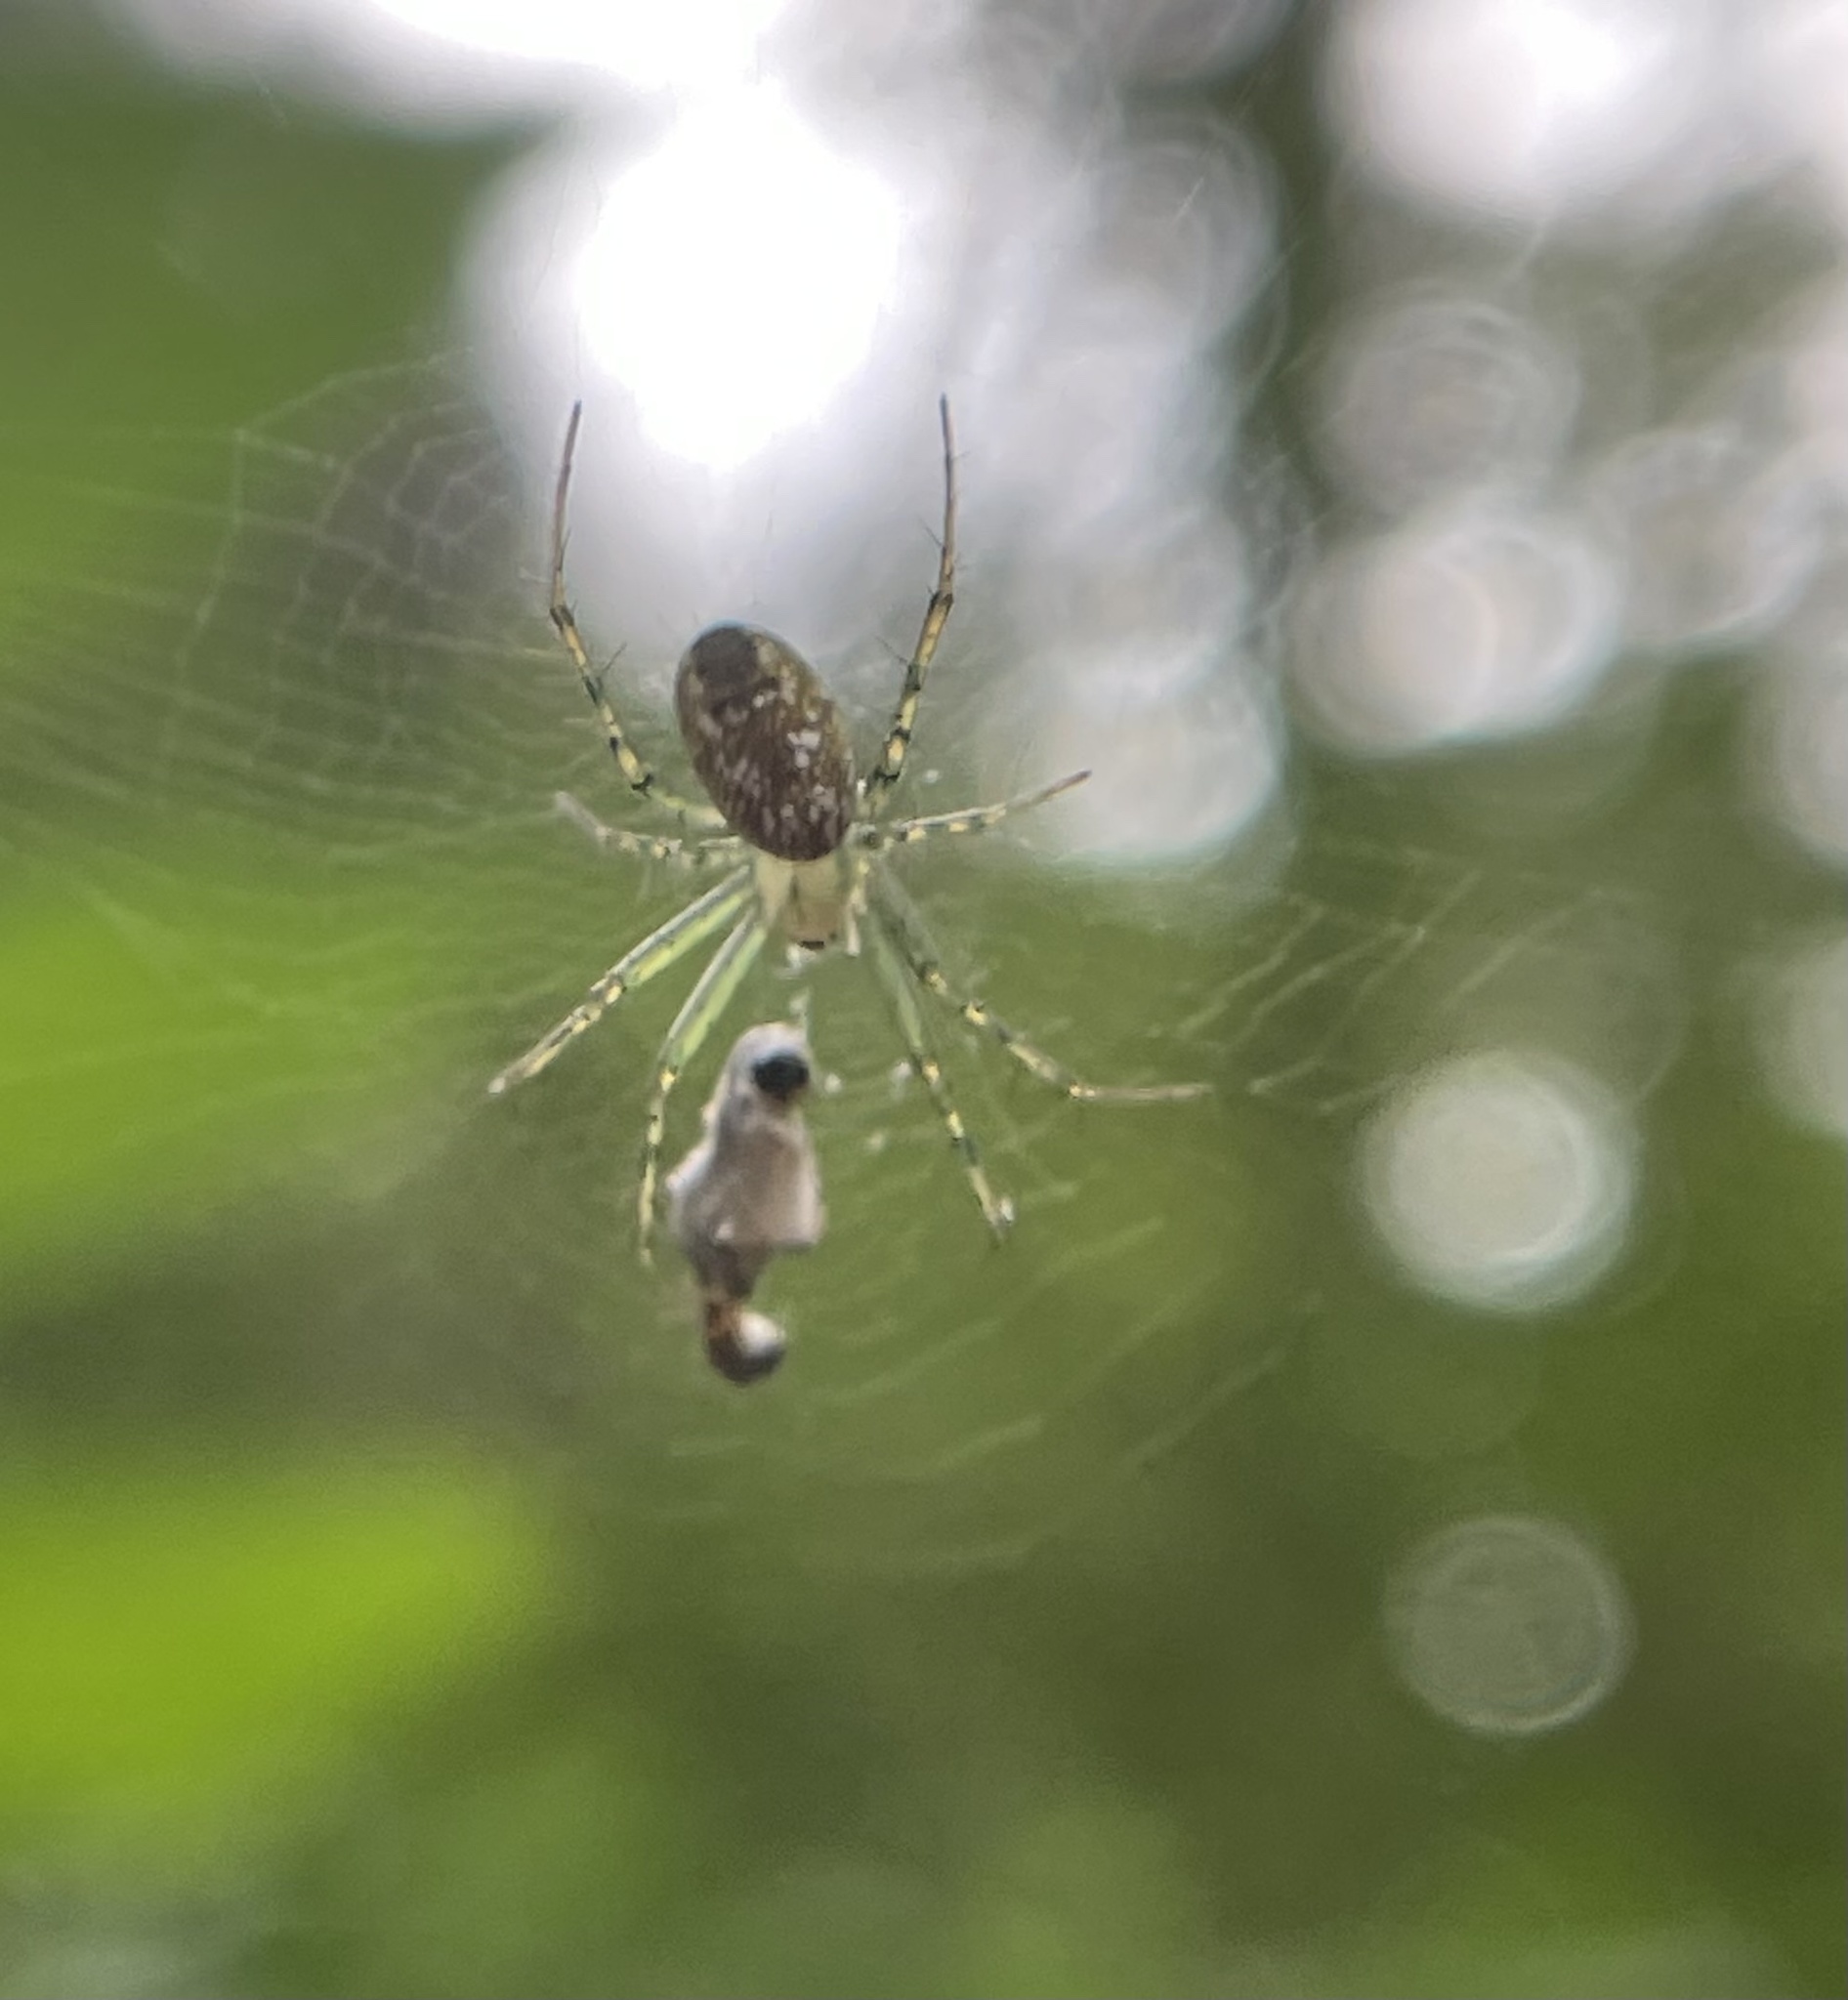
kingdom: Animalia
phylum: Arthropoda
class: Arachnida
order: Araneae
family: Araneidae
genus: Mangora
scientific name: Mangora maculata
